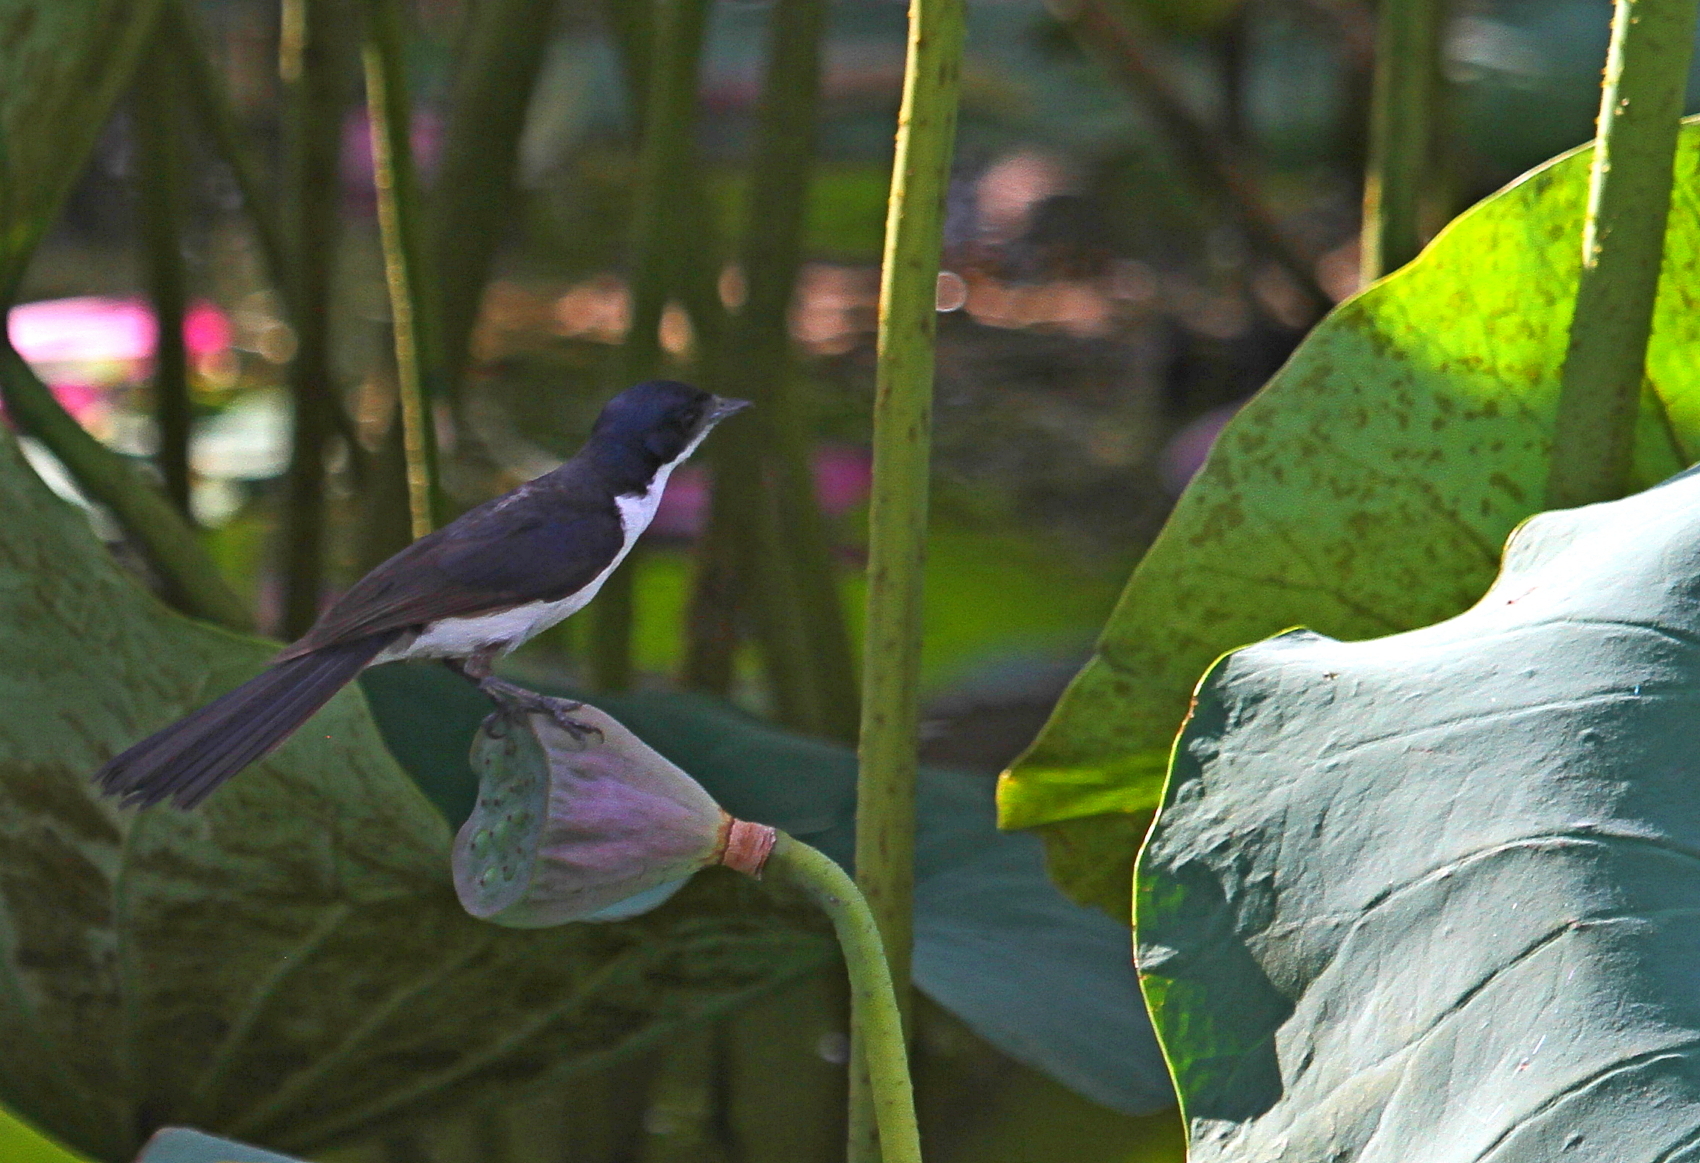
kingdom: Animalia
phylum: Chordata
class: Aves
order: Passeriformes
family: Monarchidae
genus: Myiagra
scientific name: Myiagra nana
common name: Paperbark flycatcher
